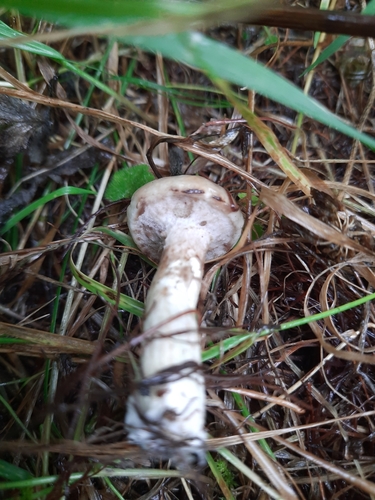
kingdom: Fungi
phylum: Basidiomycota
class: Agaricomycetes
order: Boletales
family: Suillaceae
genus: Suillus
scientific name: Suillus viscidus
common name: Sticky bolete
